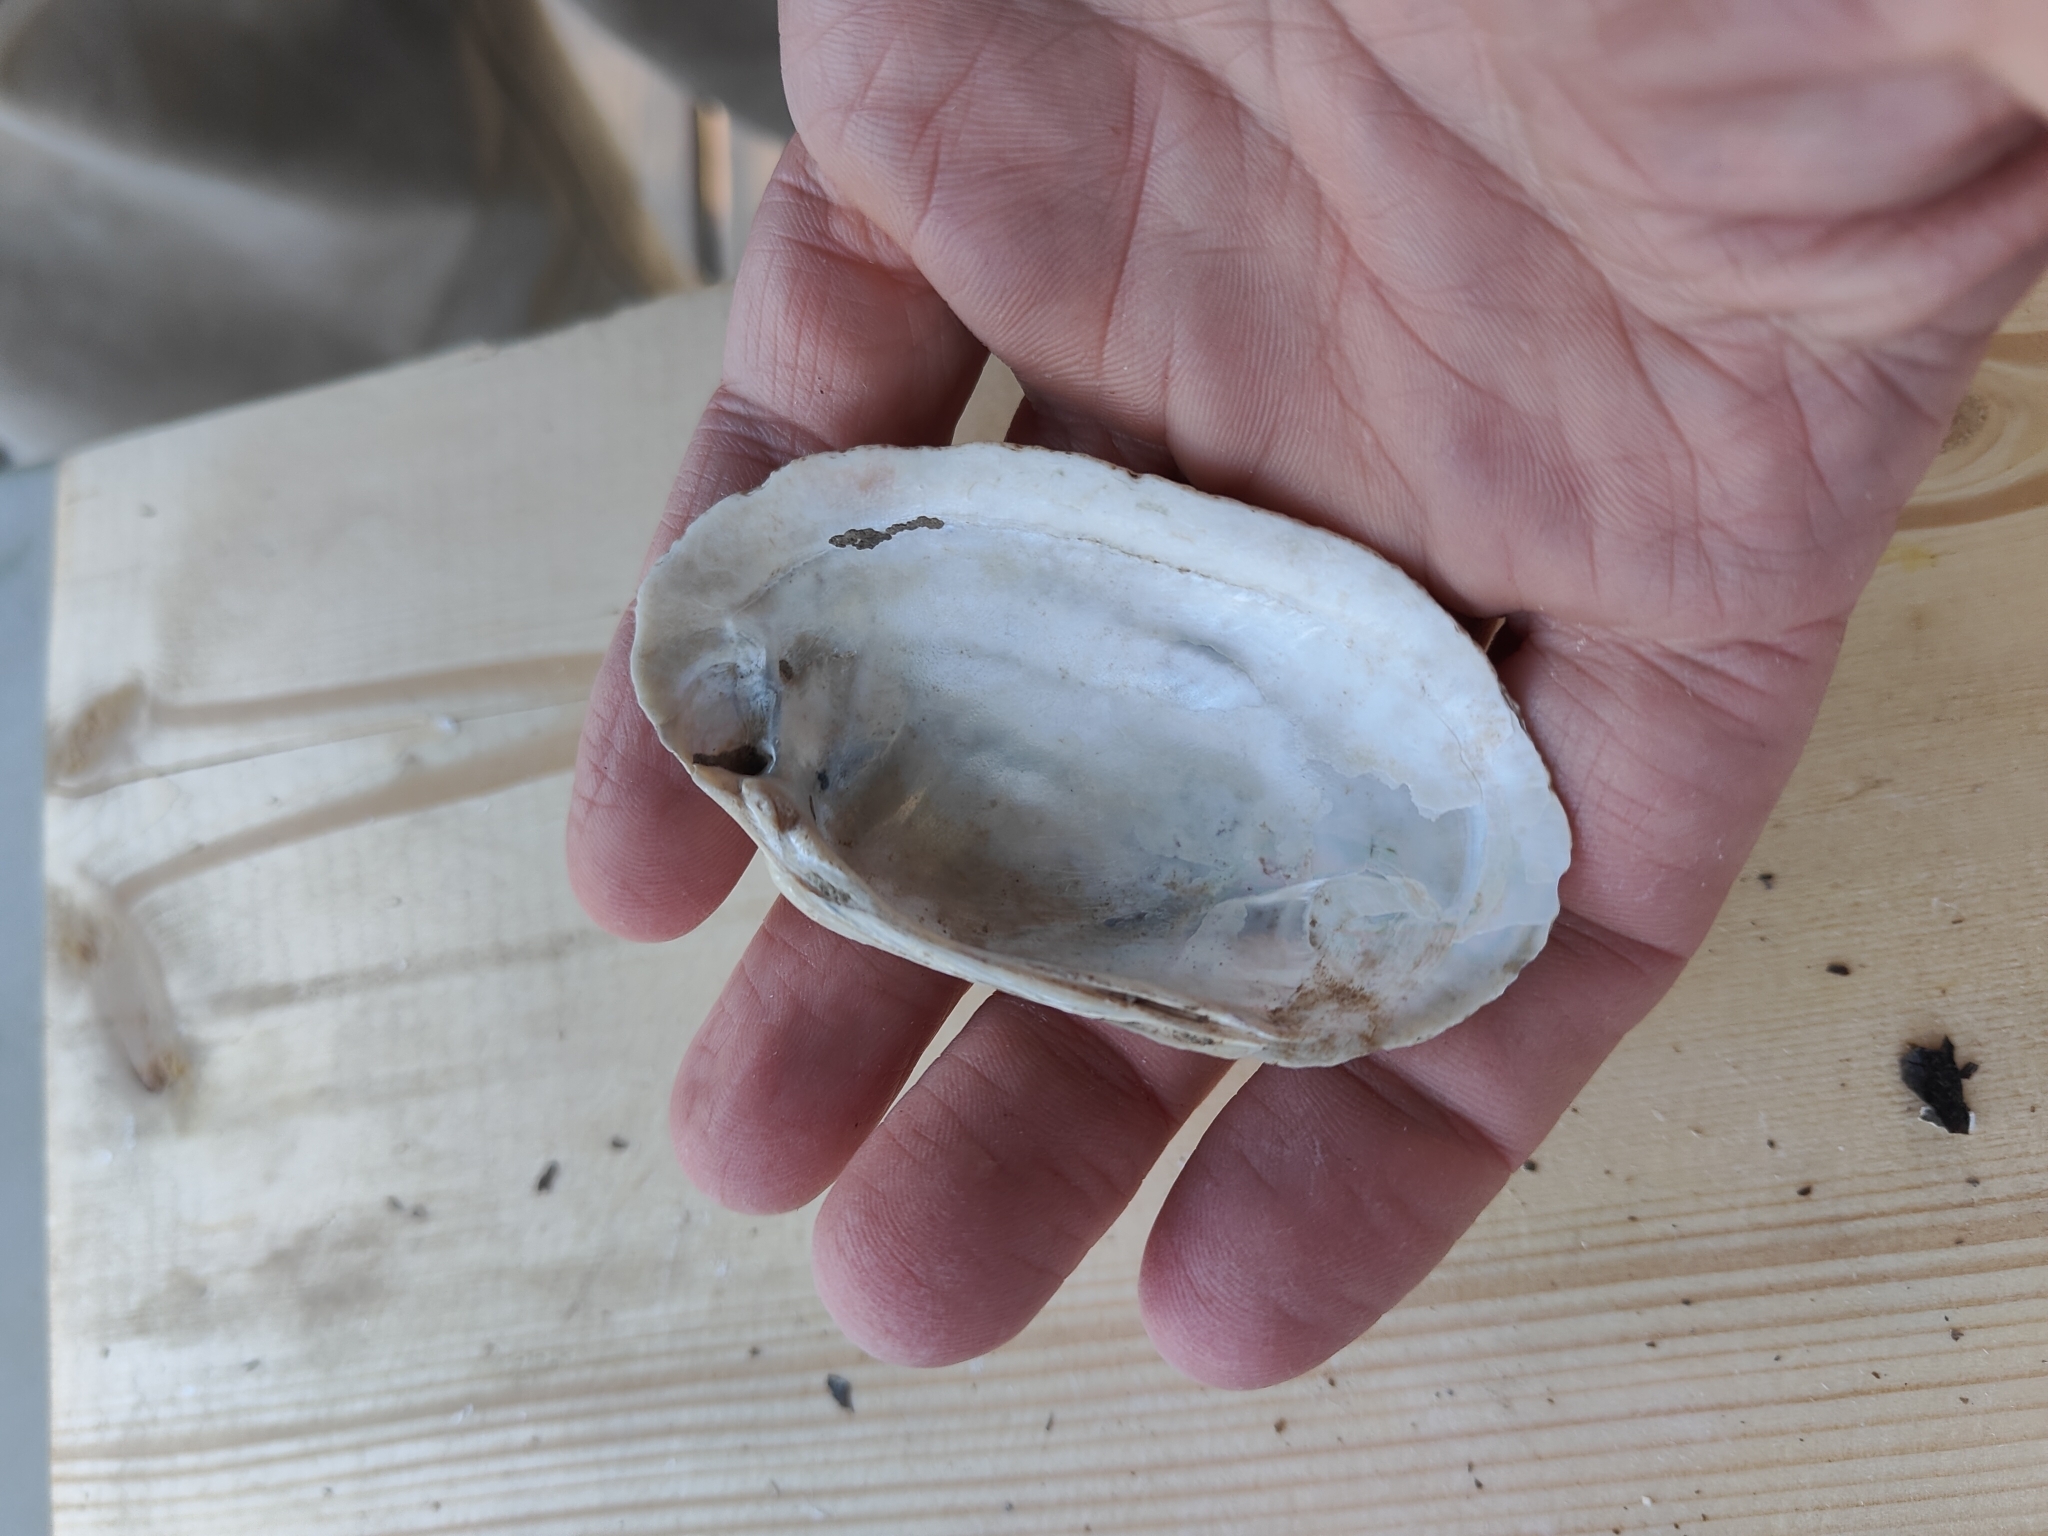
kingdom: Animalia
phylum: Mollusca
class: Bivalvia
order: Unionida
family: Unionidae
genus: Lampsilis
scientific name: Lampsilis siliquoidea
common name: Fatmucket
